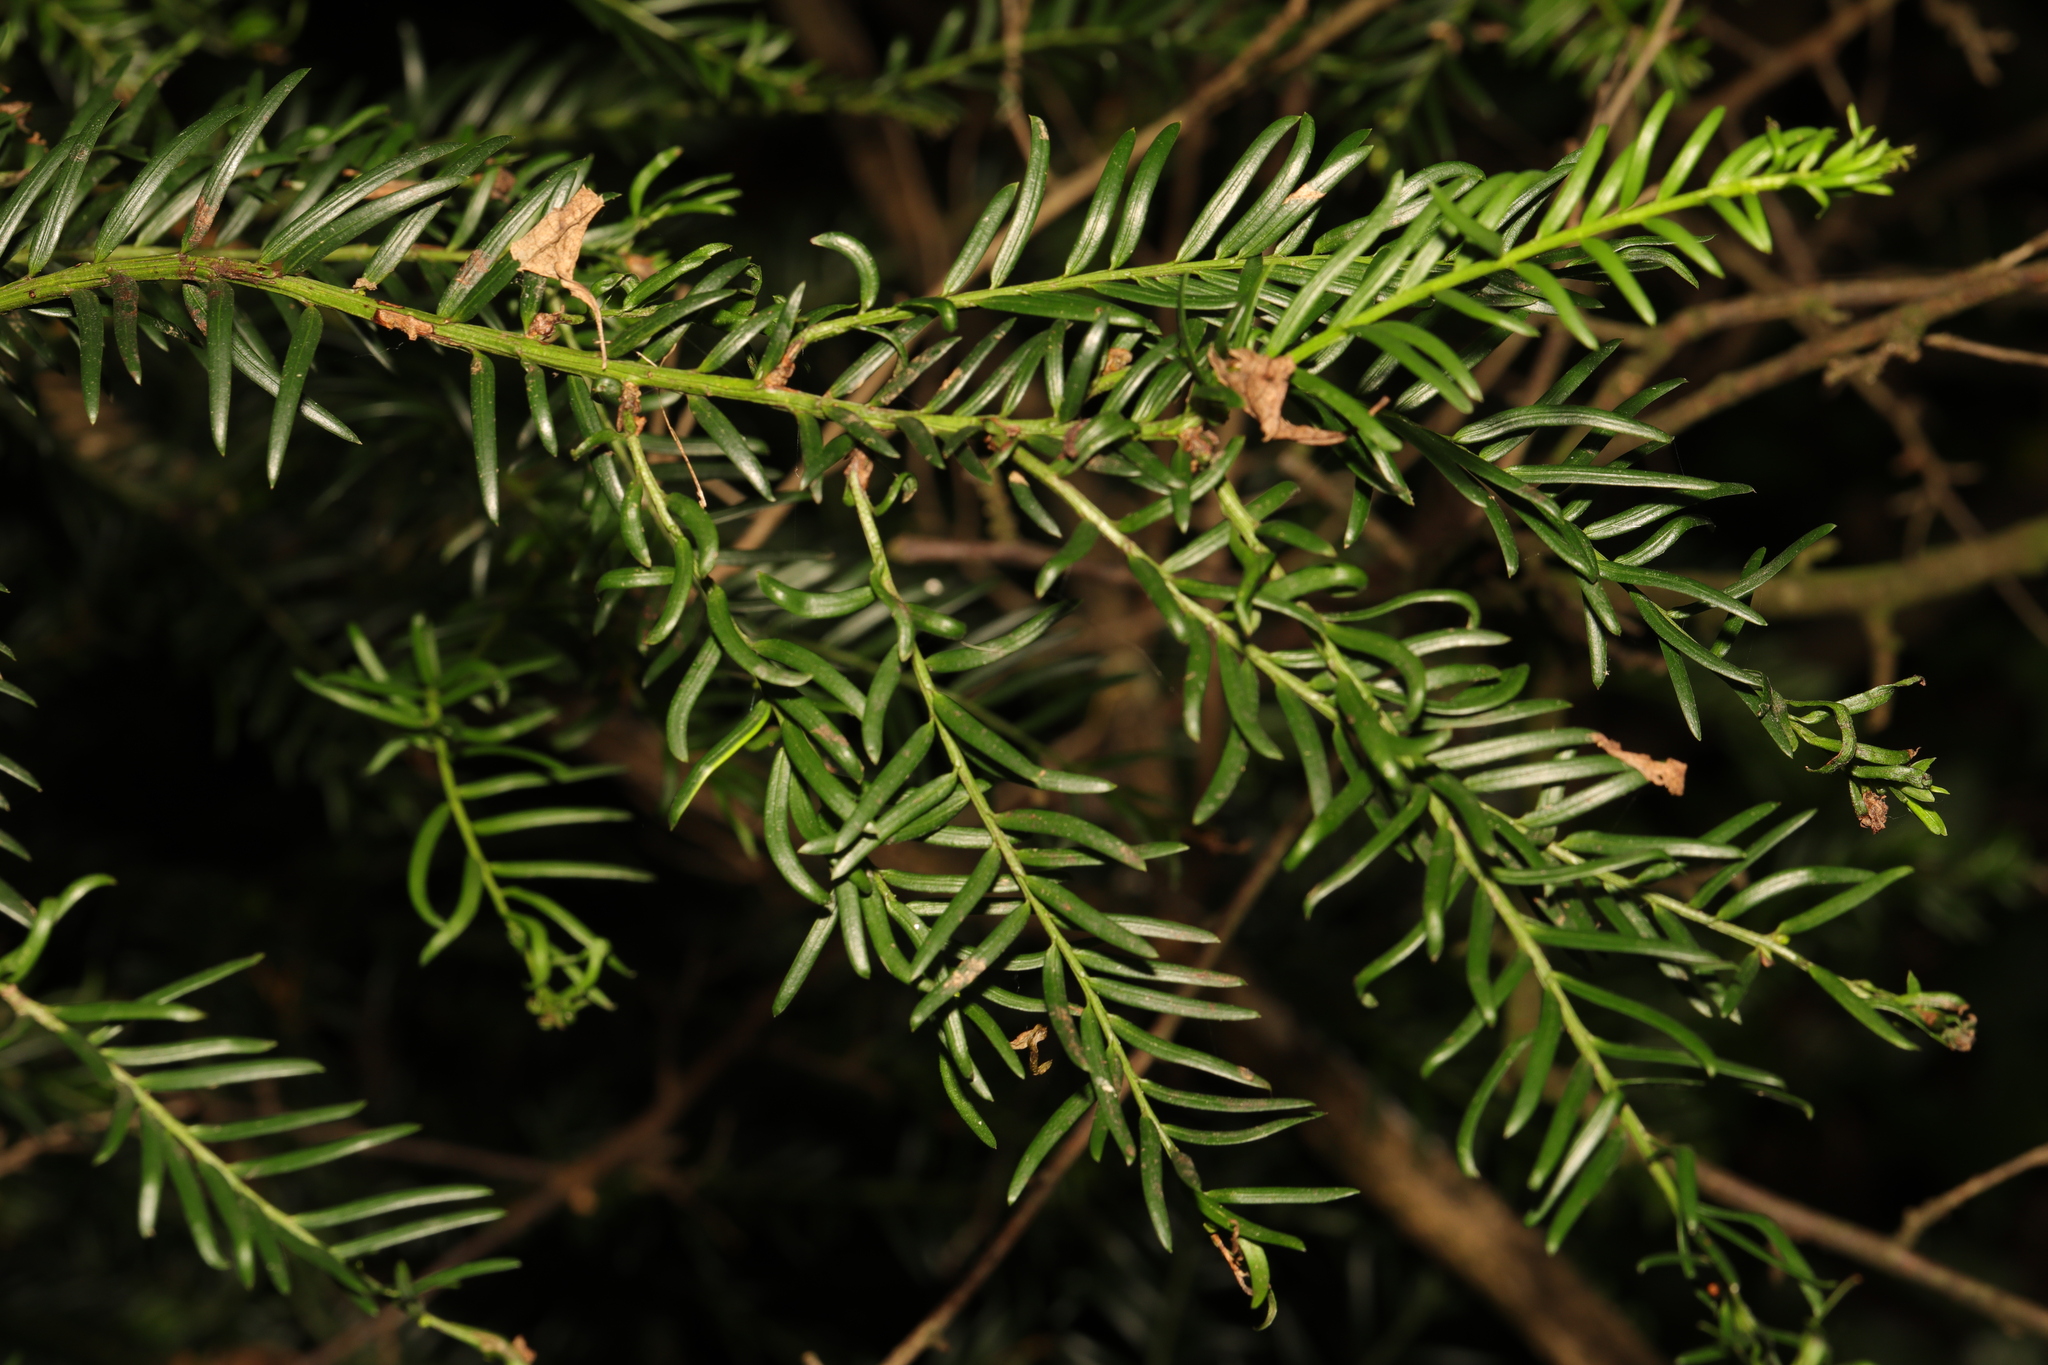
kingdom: Plantae
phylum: Tracheophyta
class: Pinopsida
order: Pinales
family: Taxaceae
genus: Taxus
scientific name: Taxus baccata
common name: Yew
